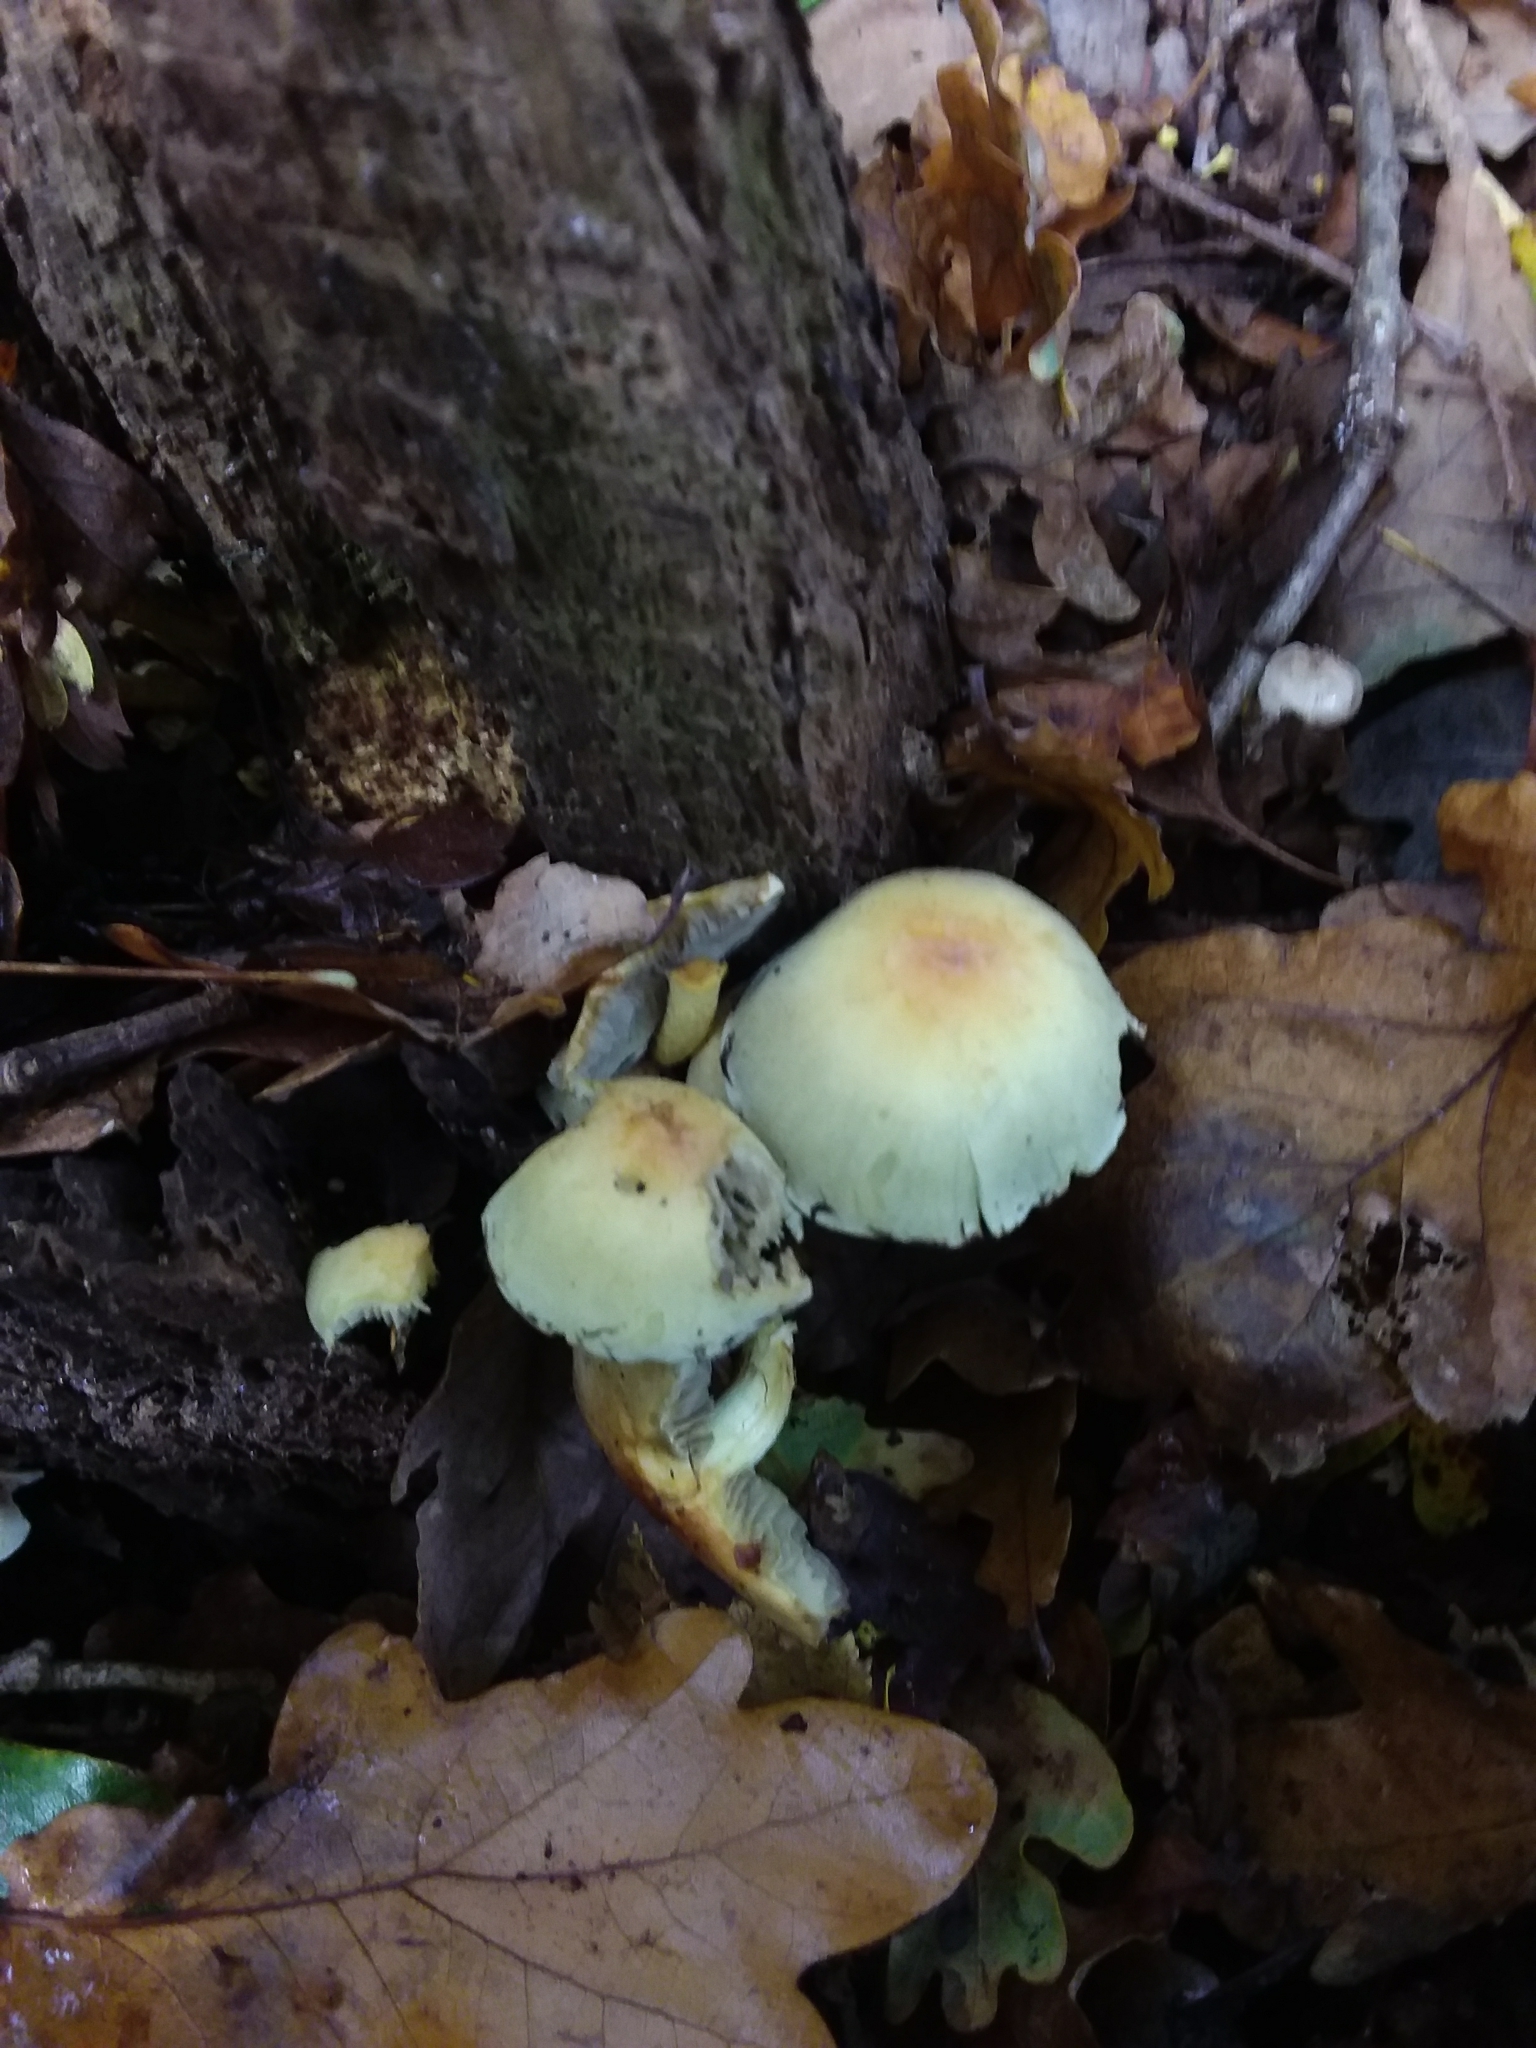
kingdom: Fungi
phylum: Basidiomycota
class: Agaricomycetes
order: Agaricales
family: Strophariaceae
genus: Hypholoma
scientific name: Hypholoma fasciculare
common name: Sulphur tuft
